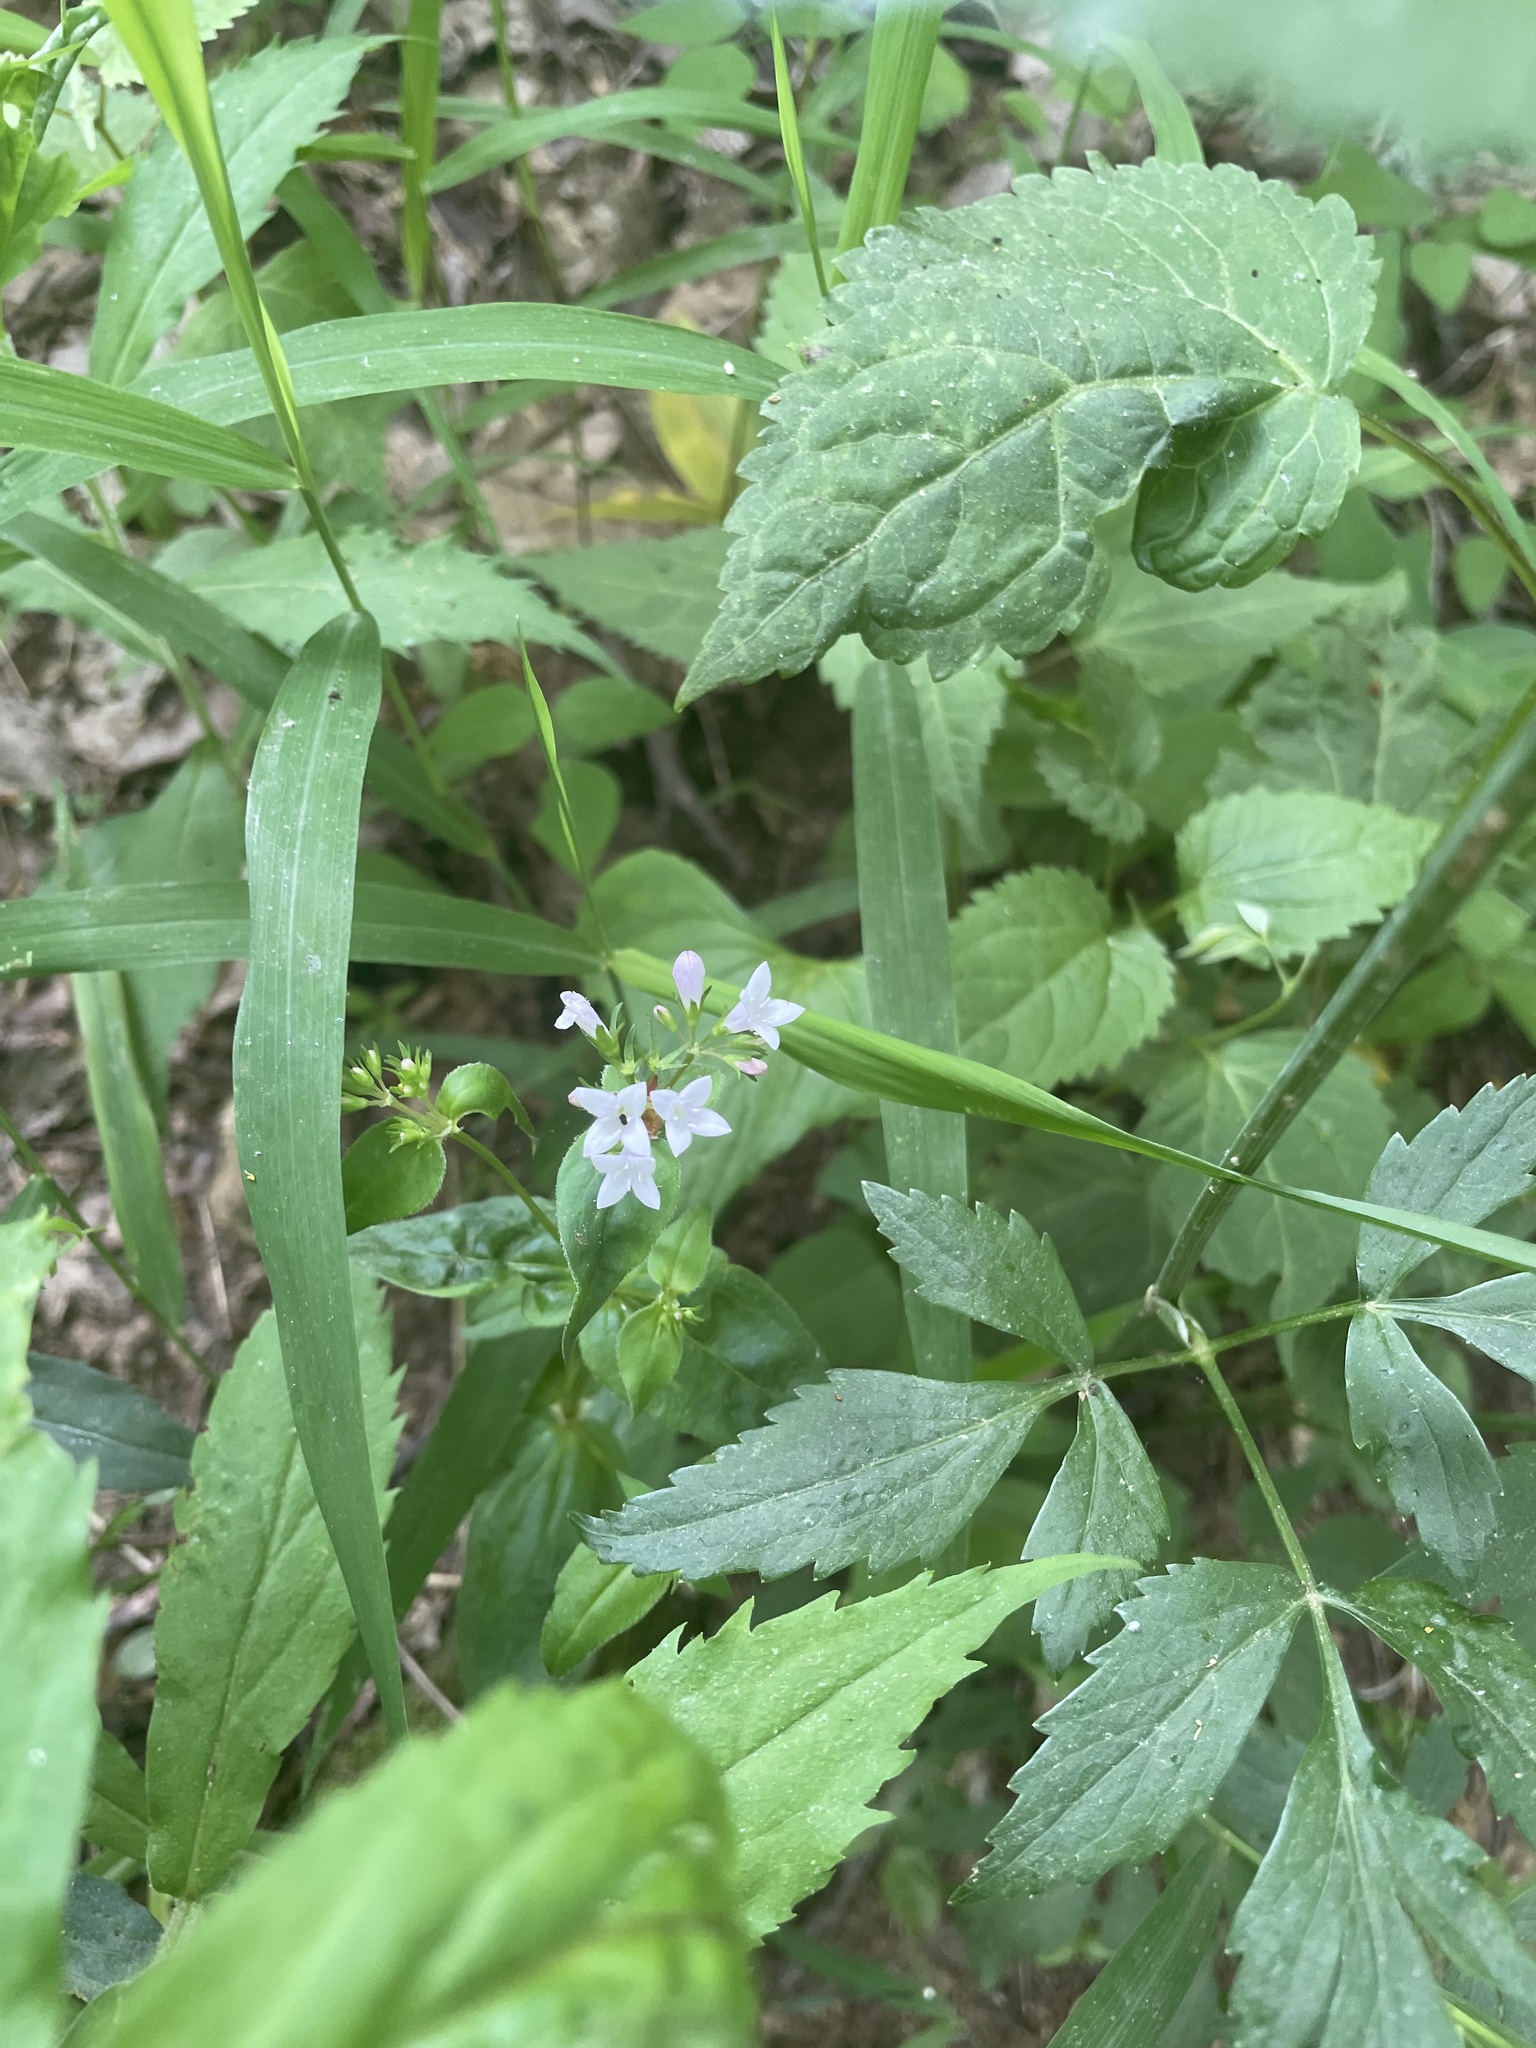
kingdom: Plantae
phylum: Tracheophyta
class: Magnoliopsida
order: Gentianales
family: Rubiaceae
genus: Houstonia
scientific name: Houstonia purpurea
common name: Summer bluet
